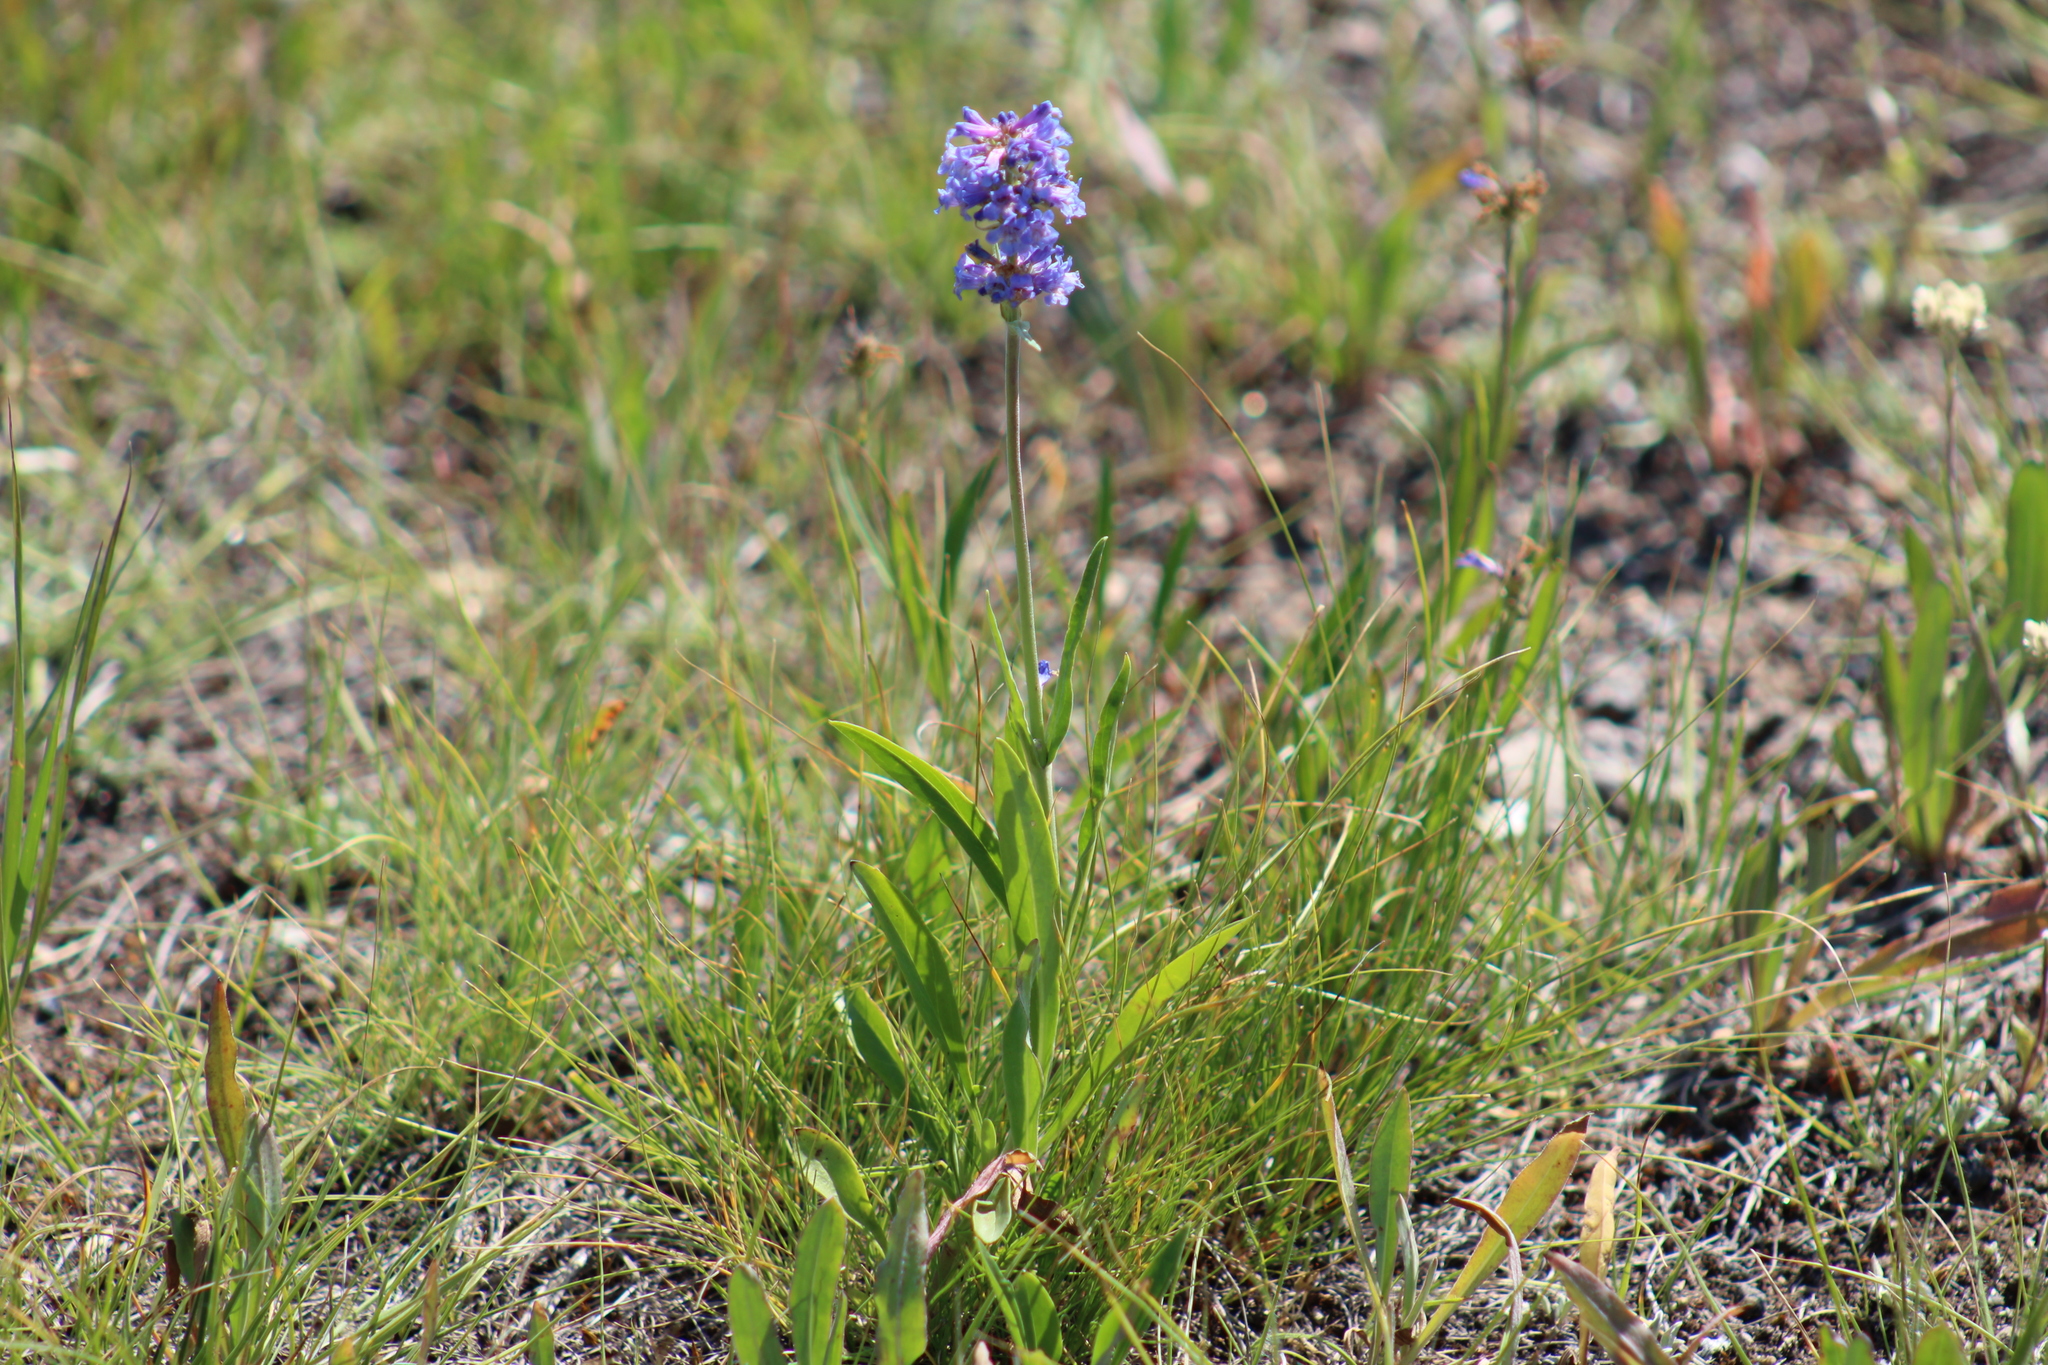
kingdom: Plantae
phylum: Tracheophyta
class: Magnoliopsida
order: Lamiales
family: Plantaginaceae
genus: Penstemon
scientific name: Penstemon rydbergii
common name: Rydberg's beardtongue
